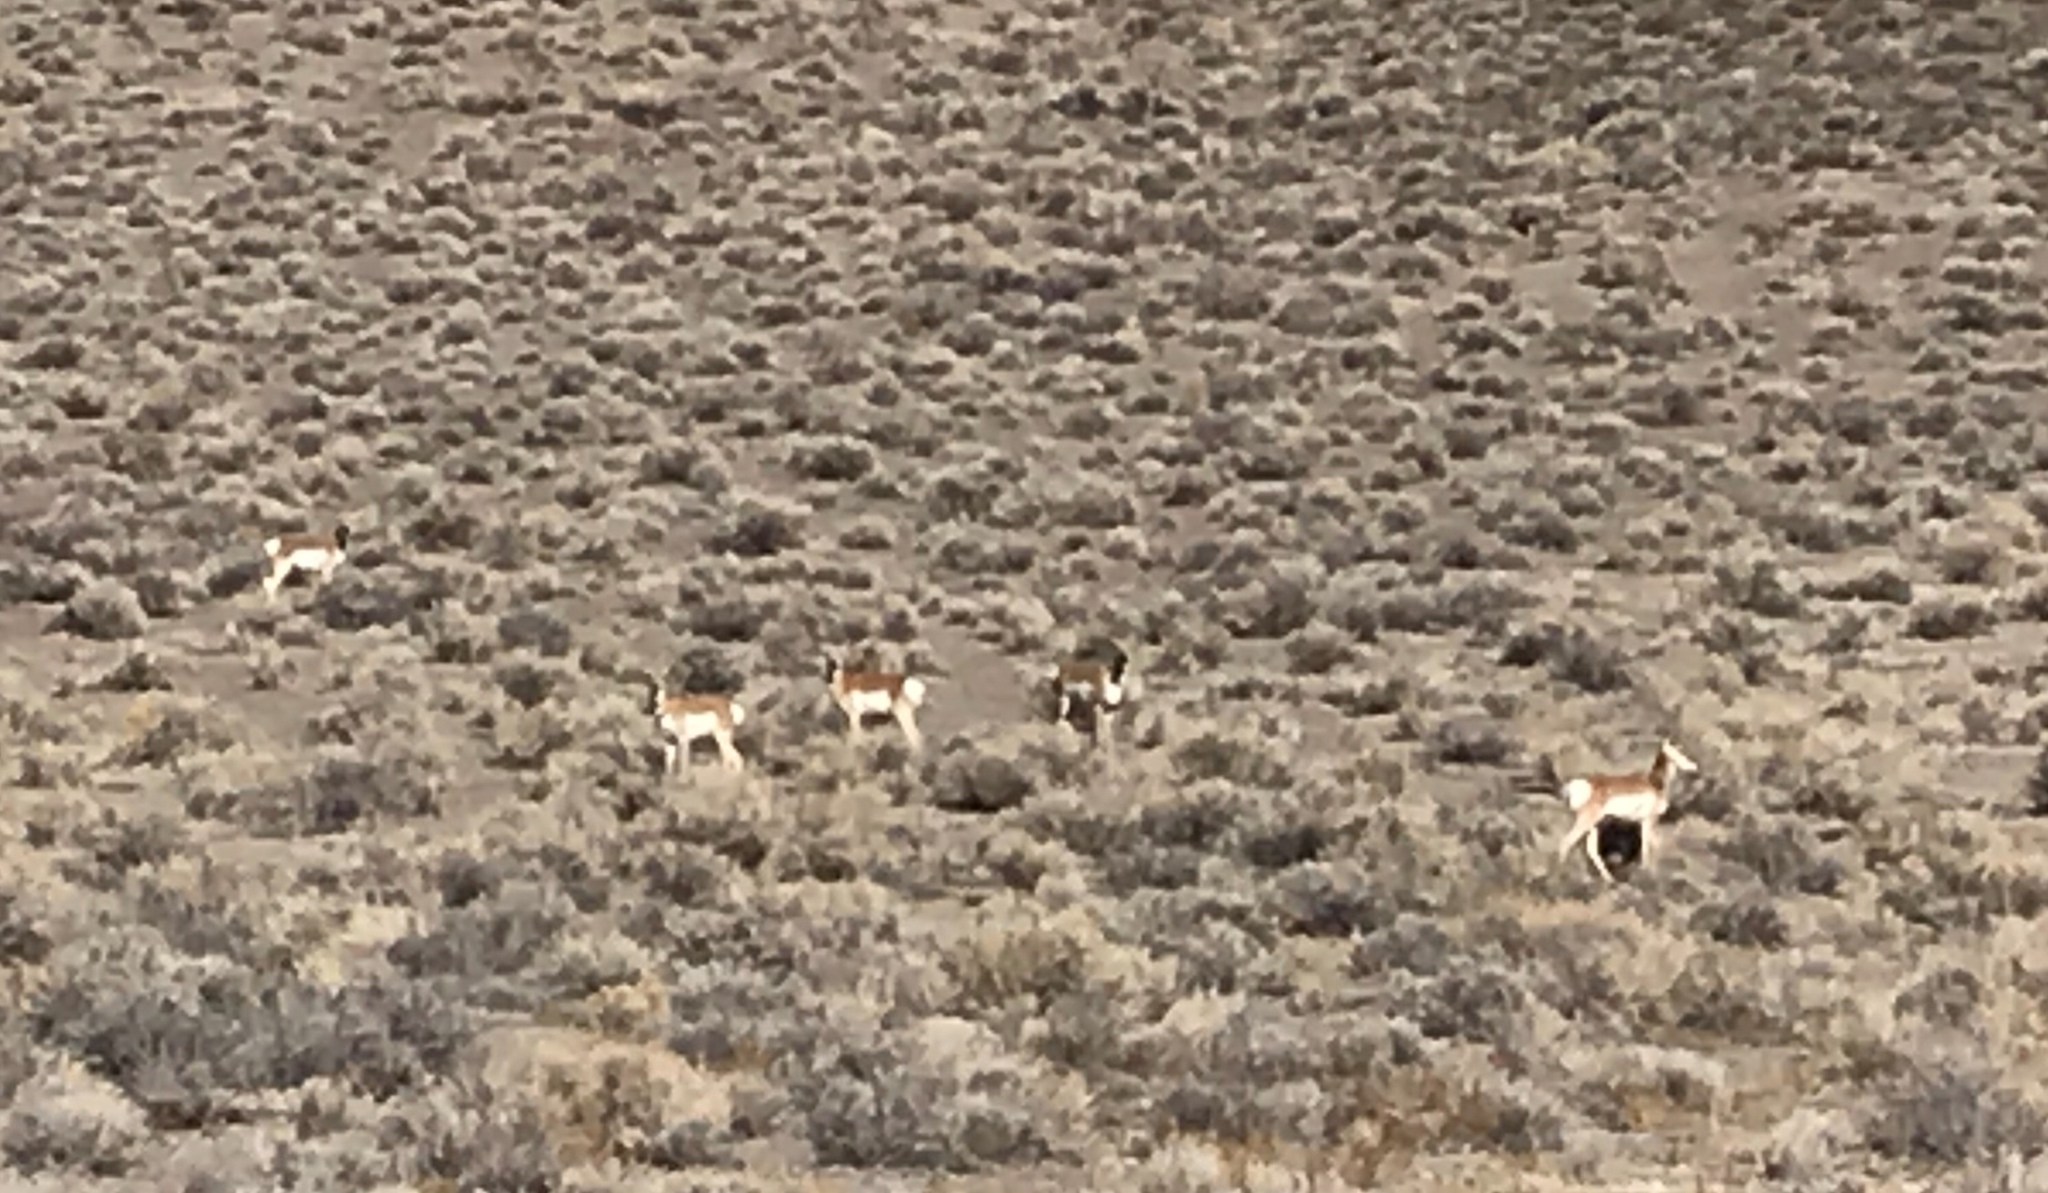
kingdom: Animalia
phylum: Chordata
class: Mammalia
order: Artiodactyla
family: Antilocapridae
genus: Antilocapra
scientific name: Antilocapra americana
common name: Pronghorn
